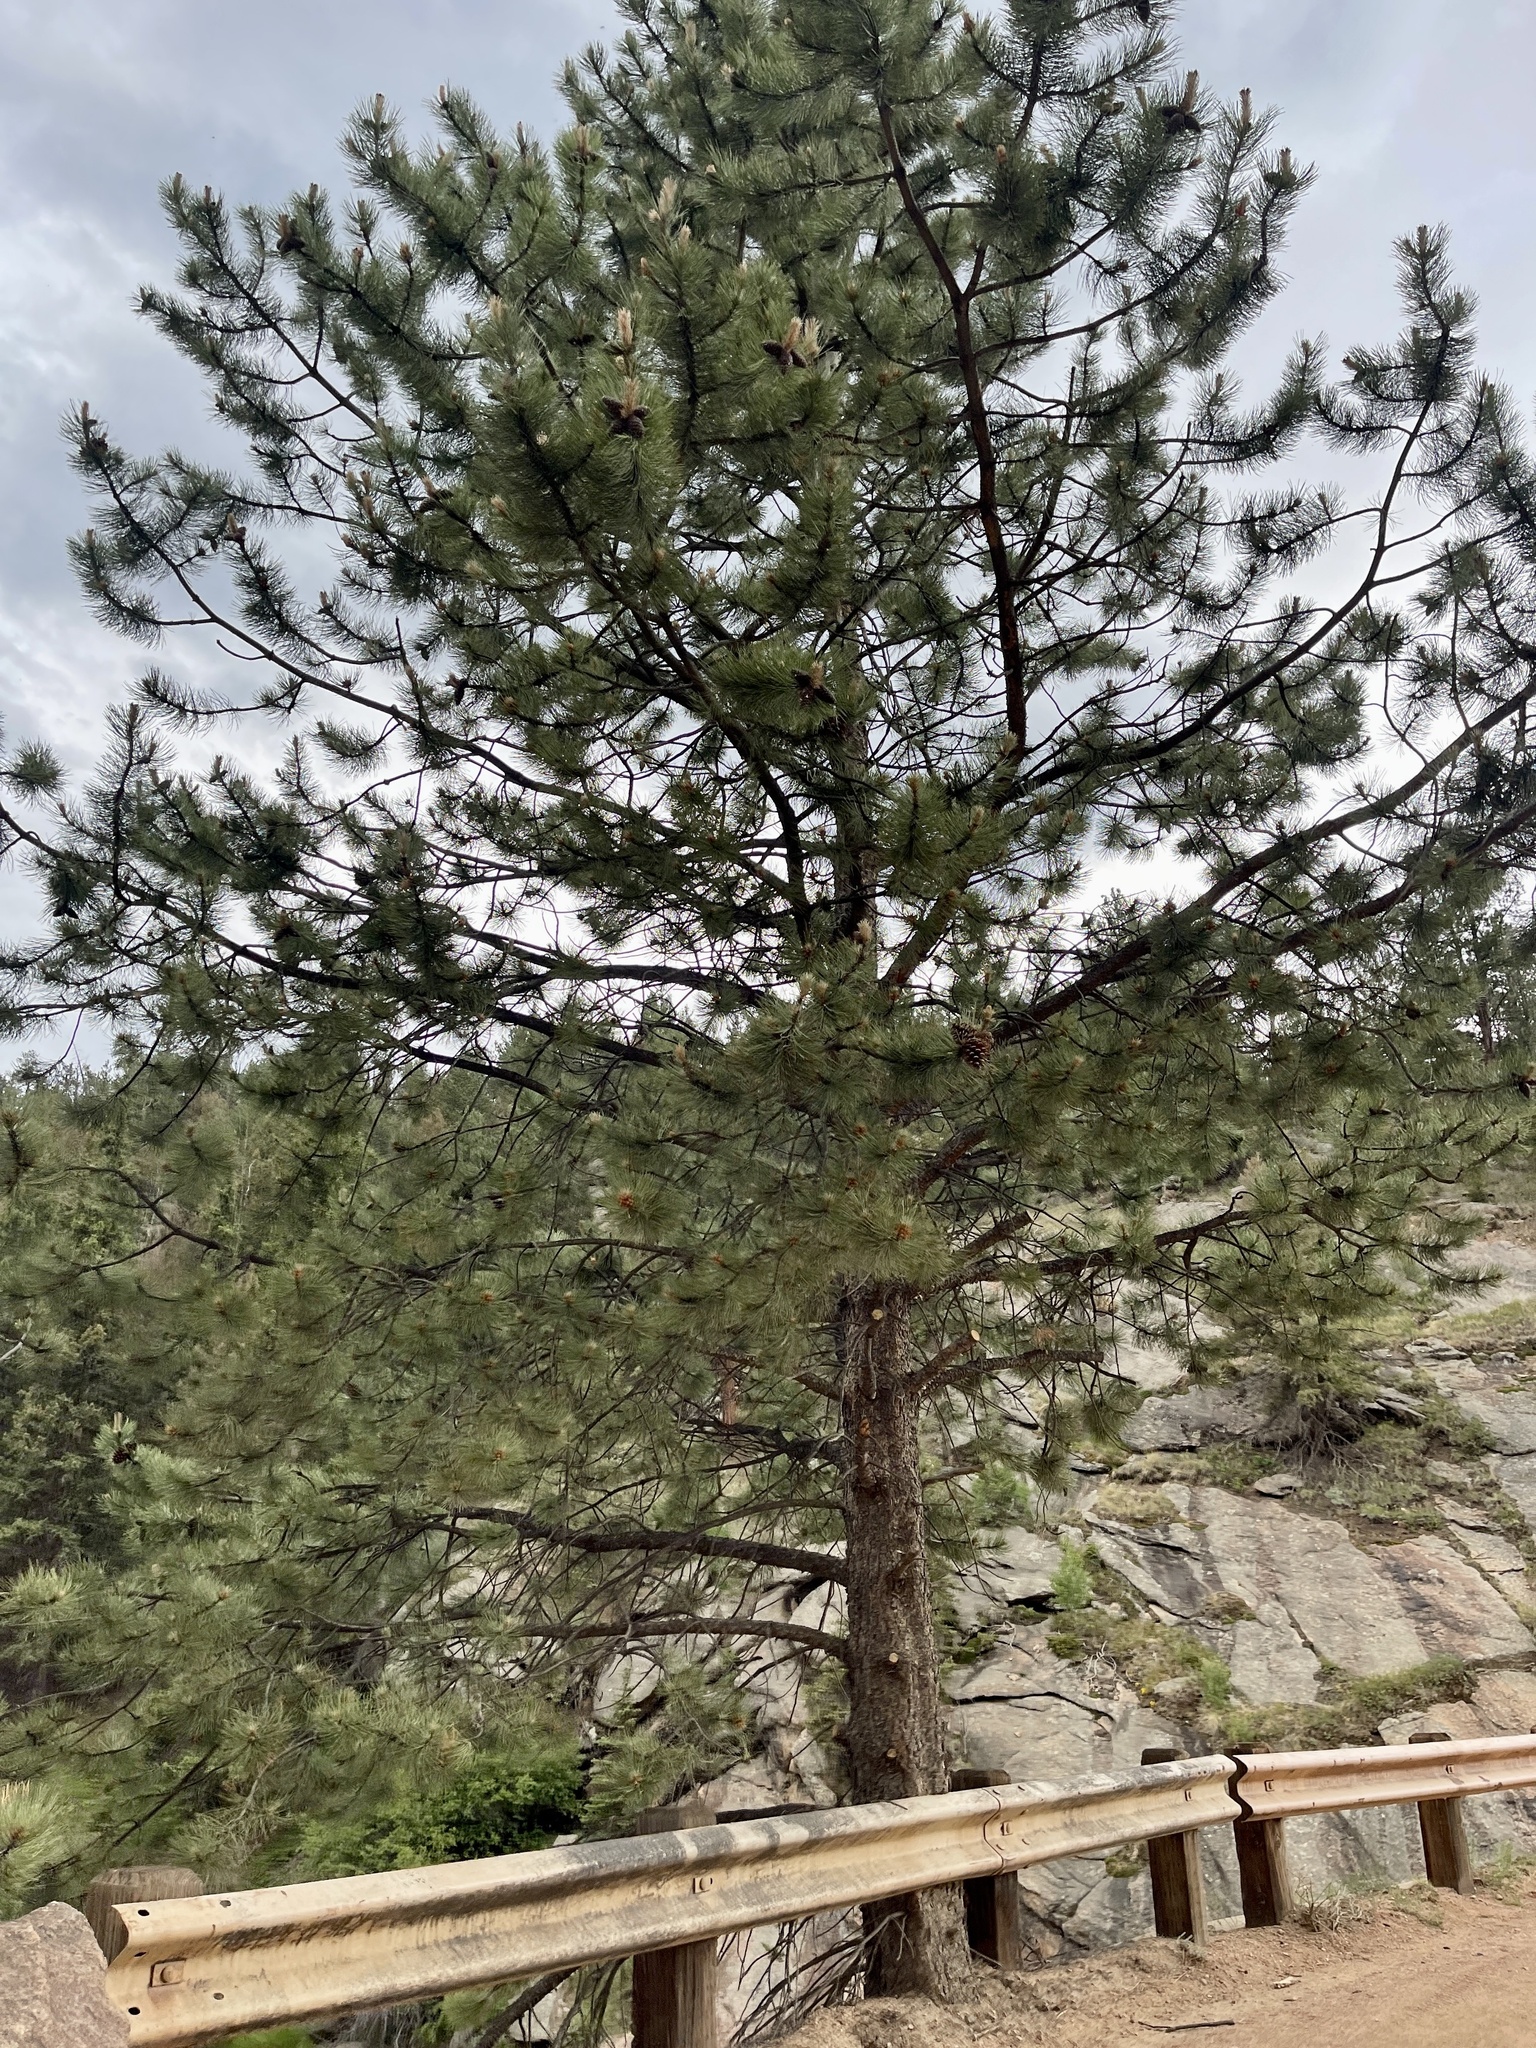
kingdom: Plantae
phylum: Tracheophyta
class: Pinopsida
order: Pinales
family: Pinaceae
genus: Pinus
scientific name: Pinus ponderosa
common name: Western yellow-pine
